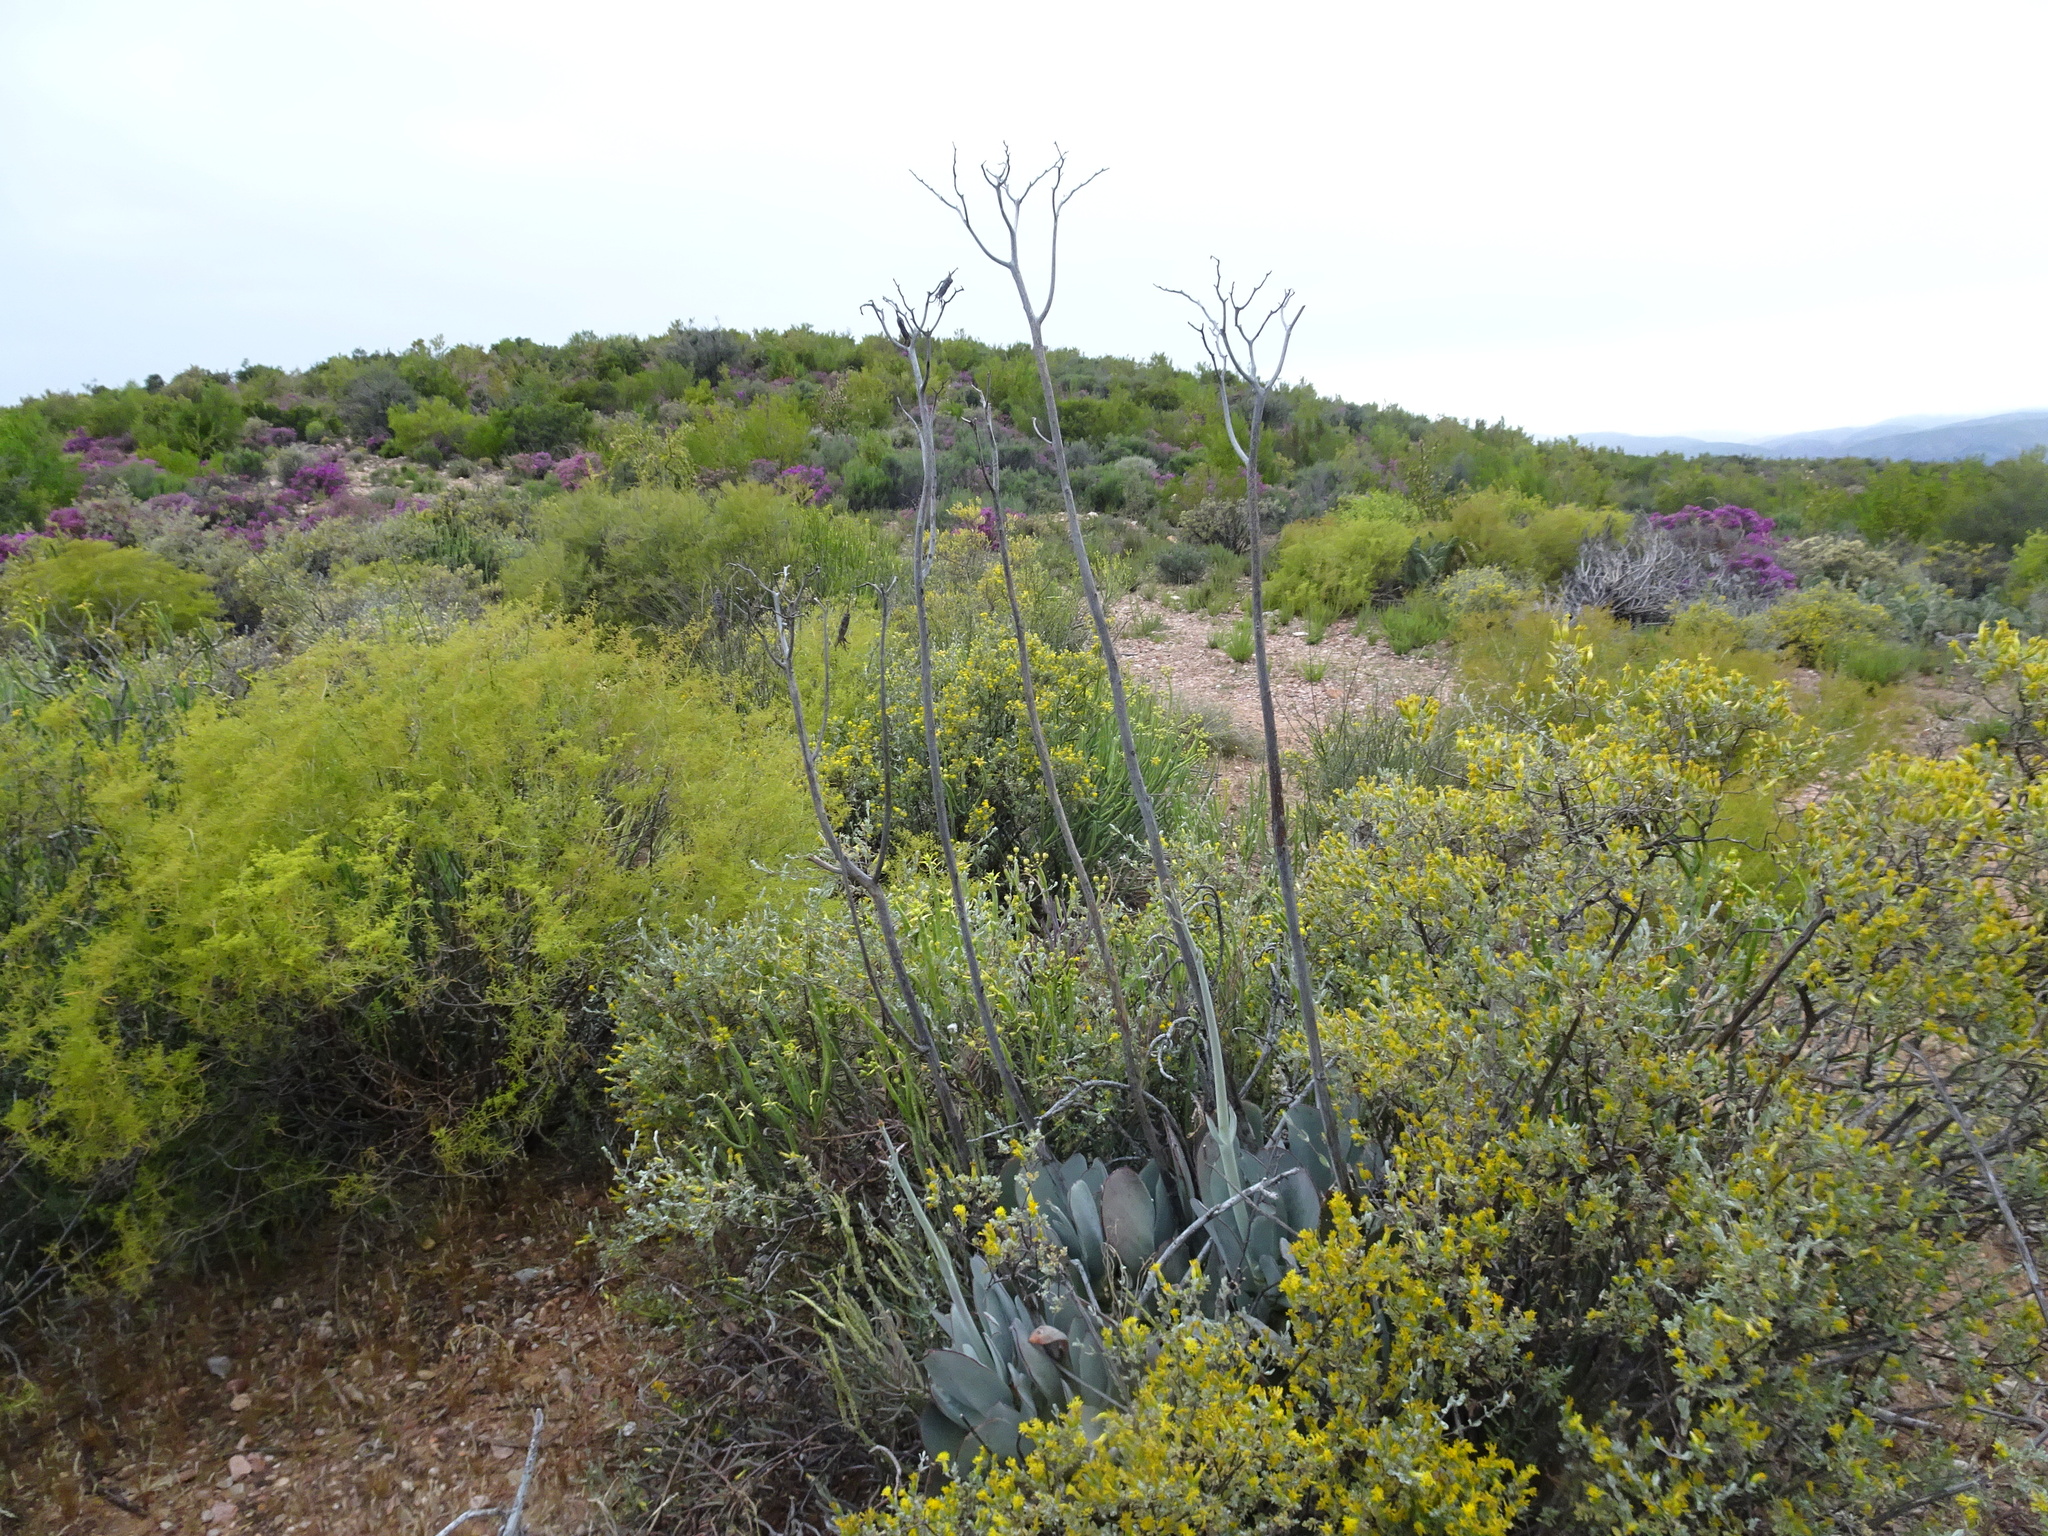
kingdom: Plantae
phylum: Tracheophyta
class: Magnoliopsida
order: Saxifragales
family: Crassulaceae
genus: Cotyledon
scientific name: Cotyledon orbiculata
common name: Pig's ear
